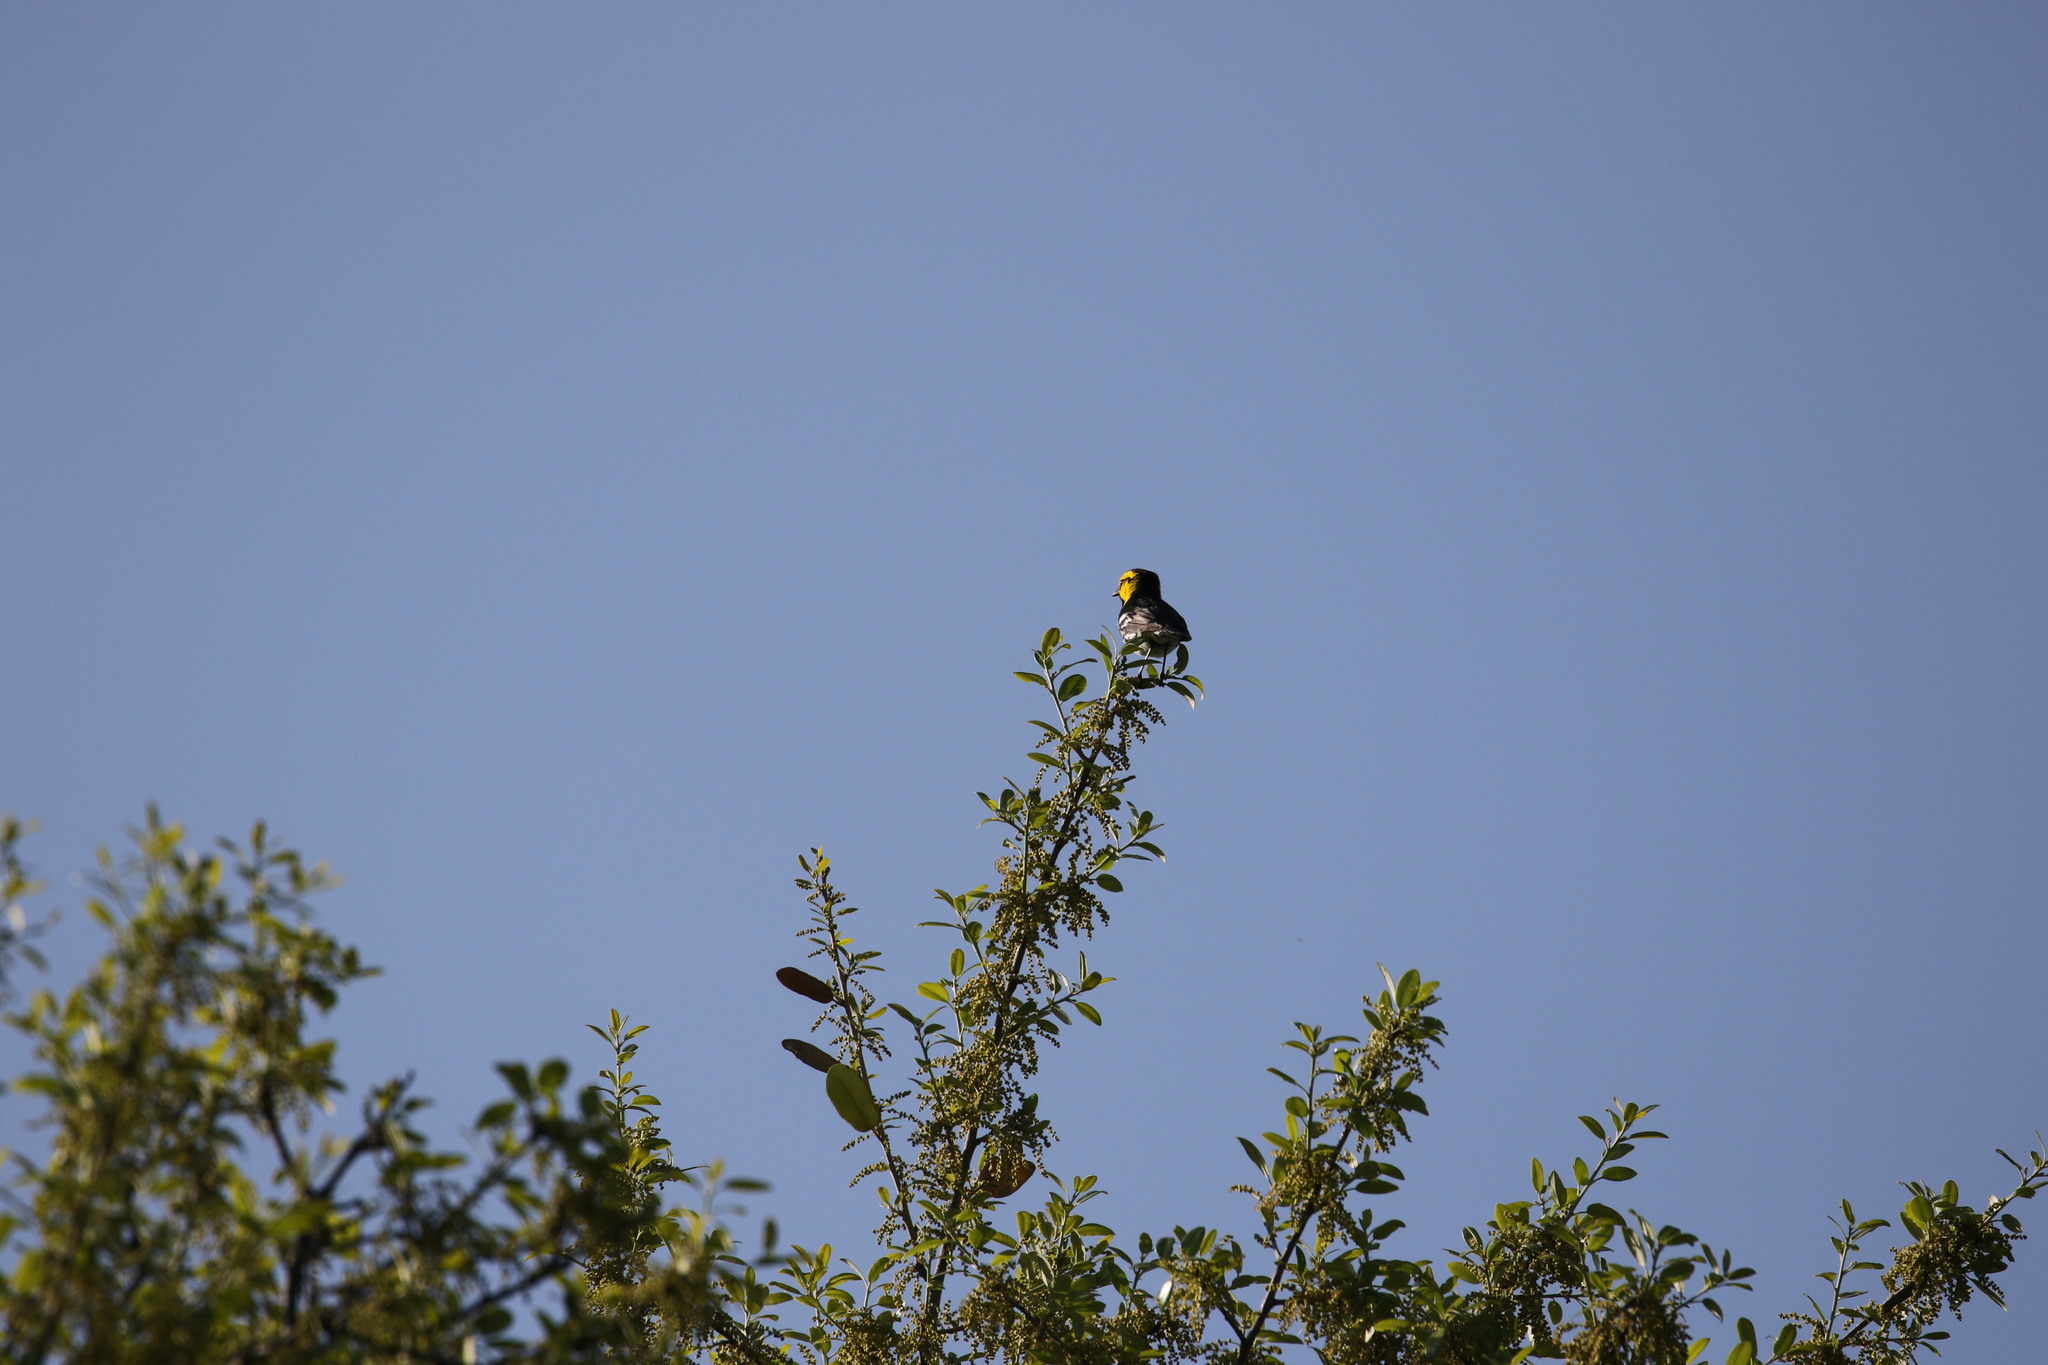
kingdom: Animalia
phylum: Chordata
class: Aves
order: Passeriformes
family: Parulidae
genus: Setophaga
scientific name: Setophaga chrysoparia
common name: Golden-cheeked warbler
